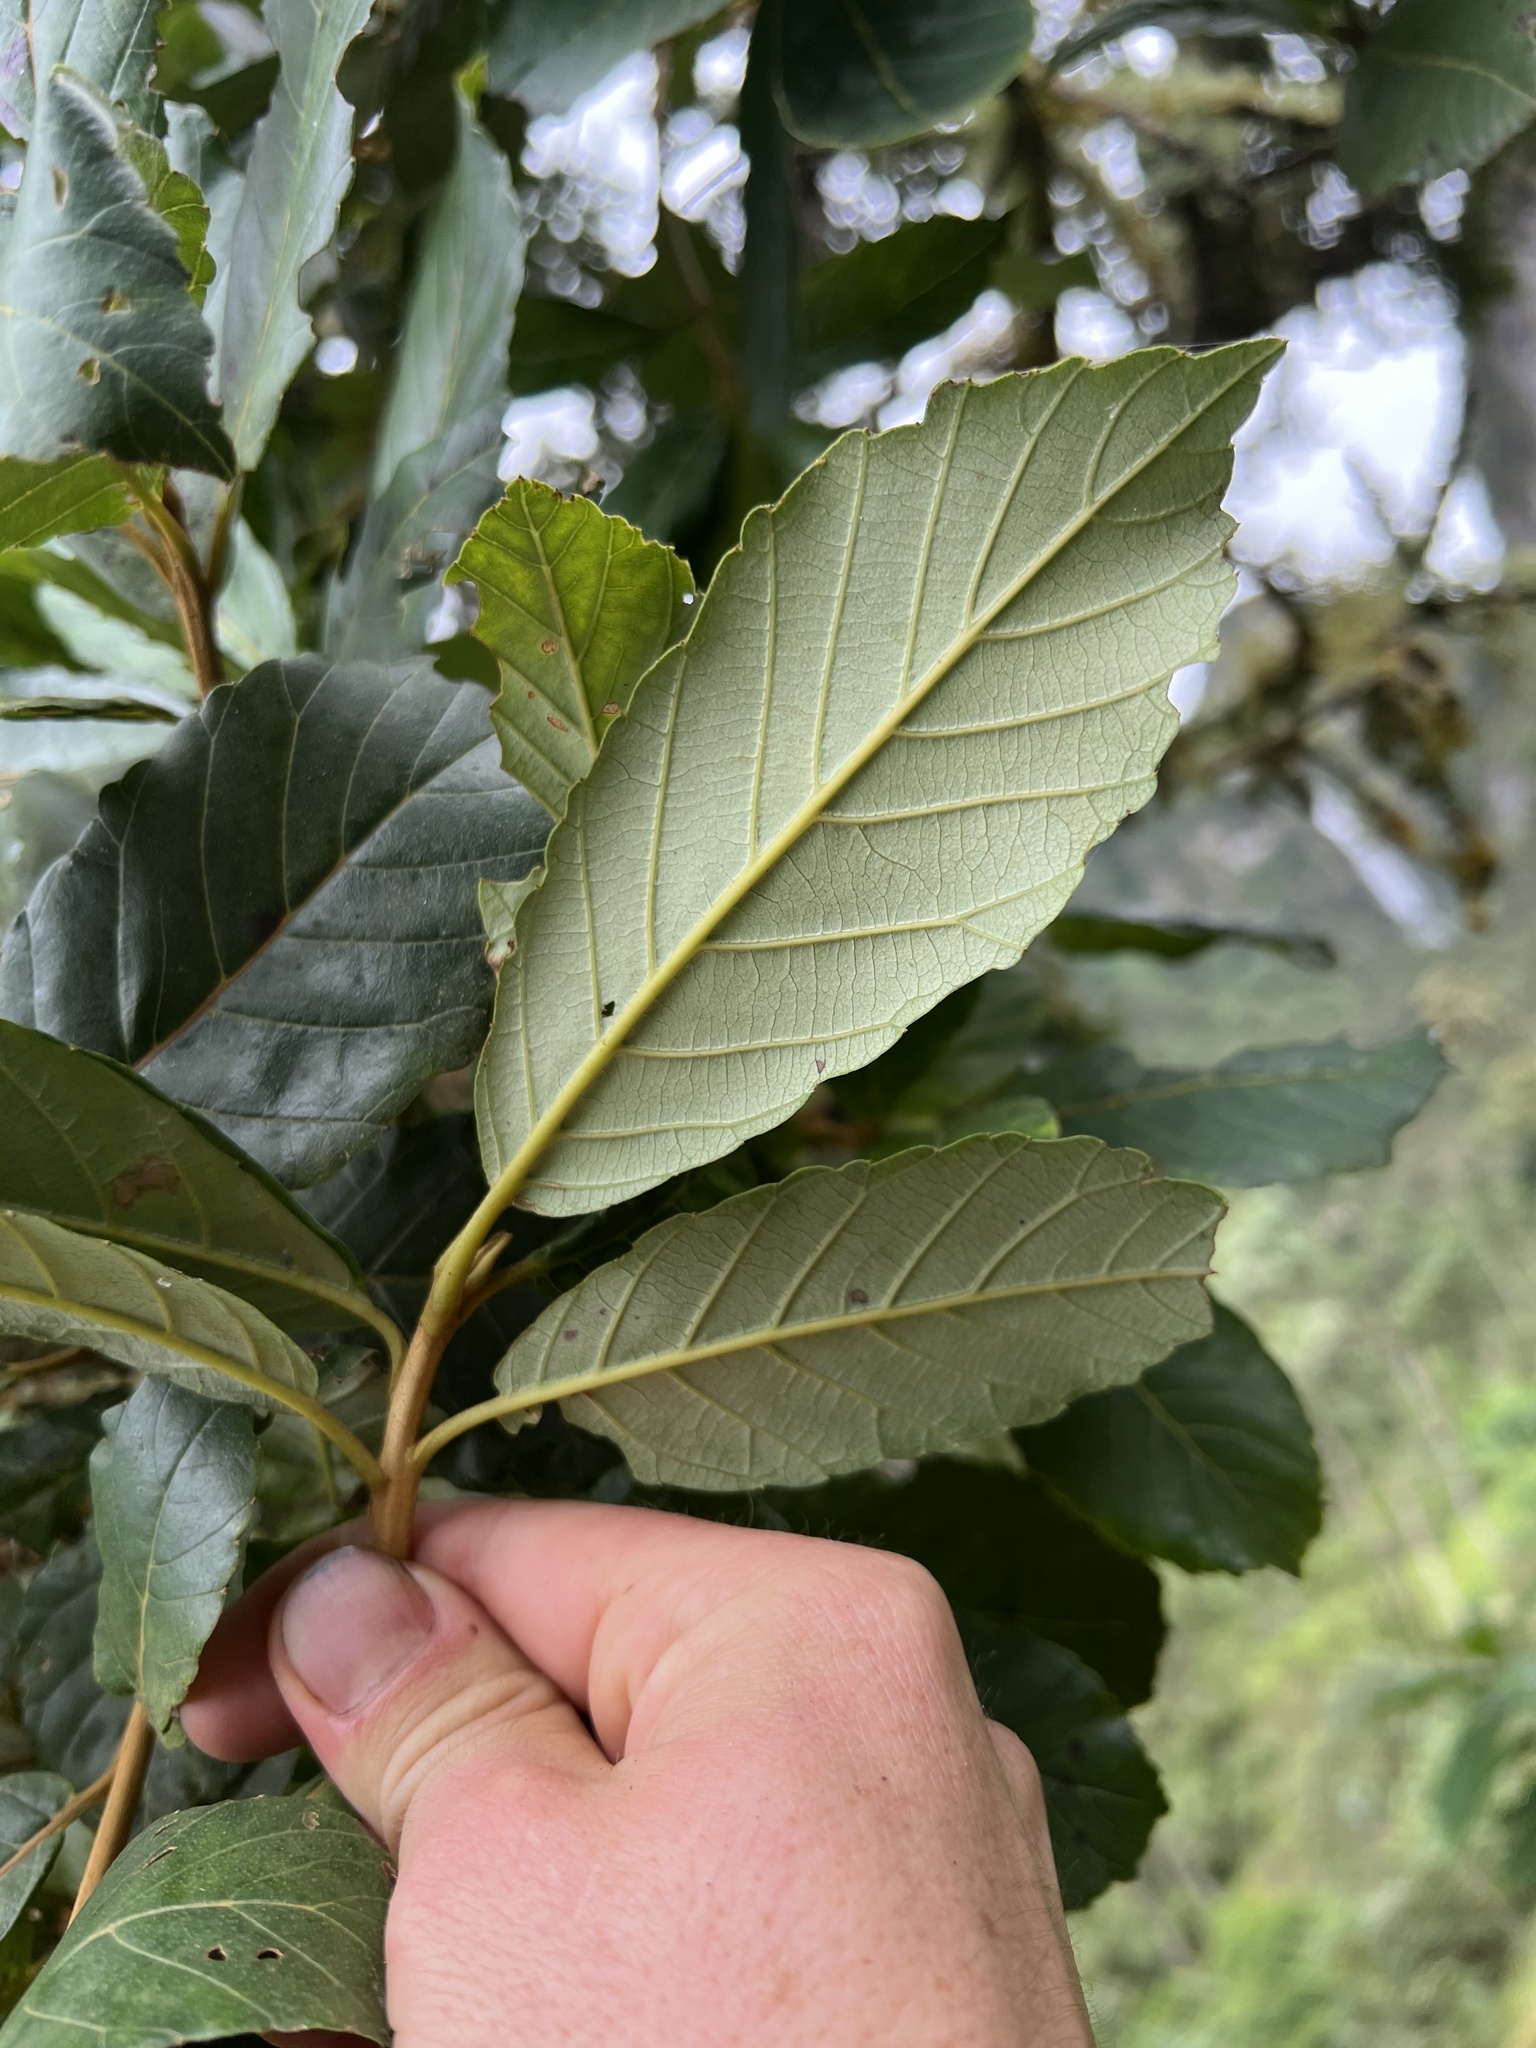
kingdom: Plantae
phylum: Tracheophyta
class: Magnoliopsida
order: Ericales
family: Clethraceae
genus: Clethra
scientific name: Clethra fagifolia
